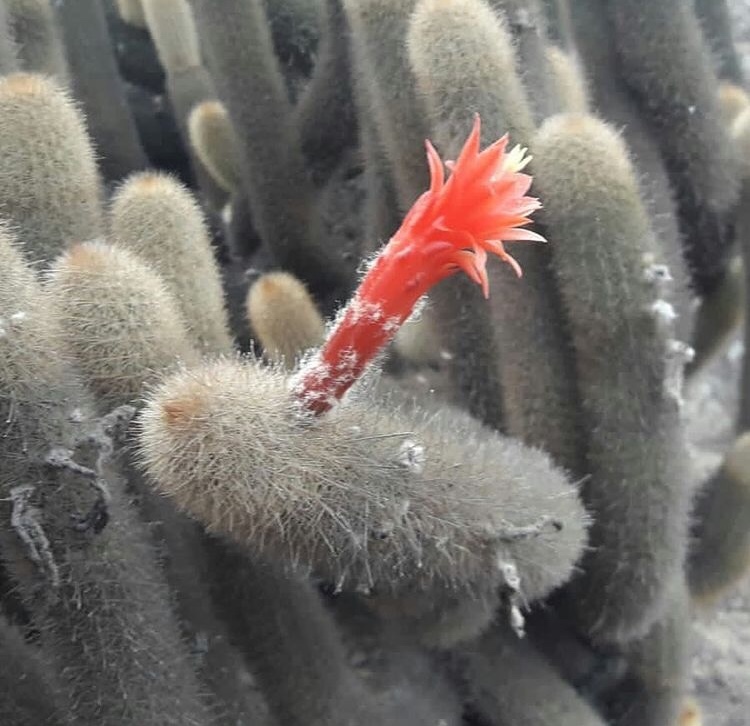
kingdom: Plantae
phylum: Tracheophyta
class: Magnoliopsida
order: Caryophyllales
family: Cactaceae
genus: Borzicactus
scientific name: Borzicactus acanthurus
